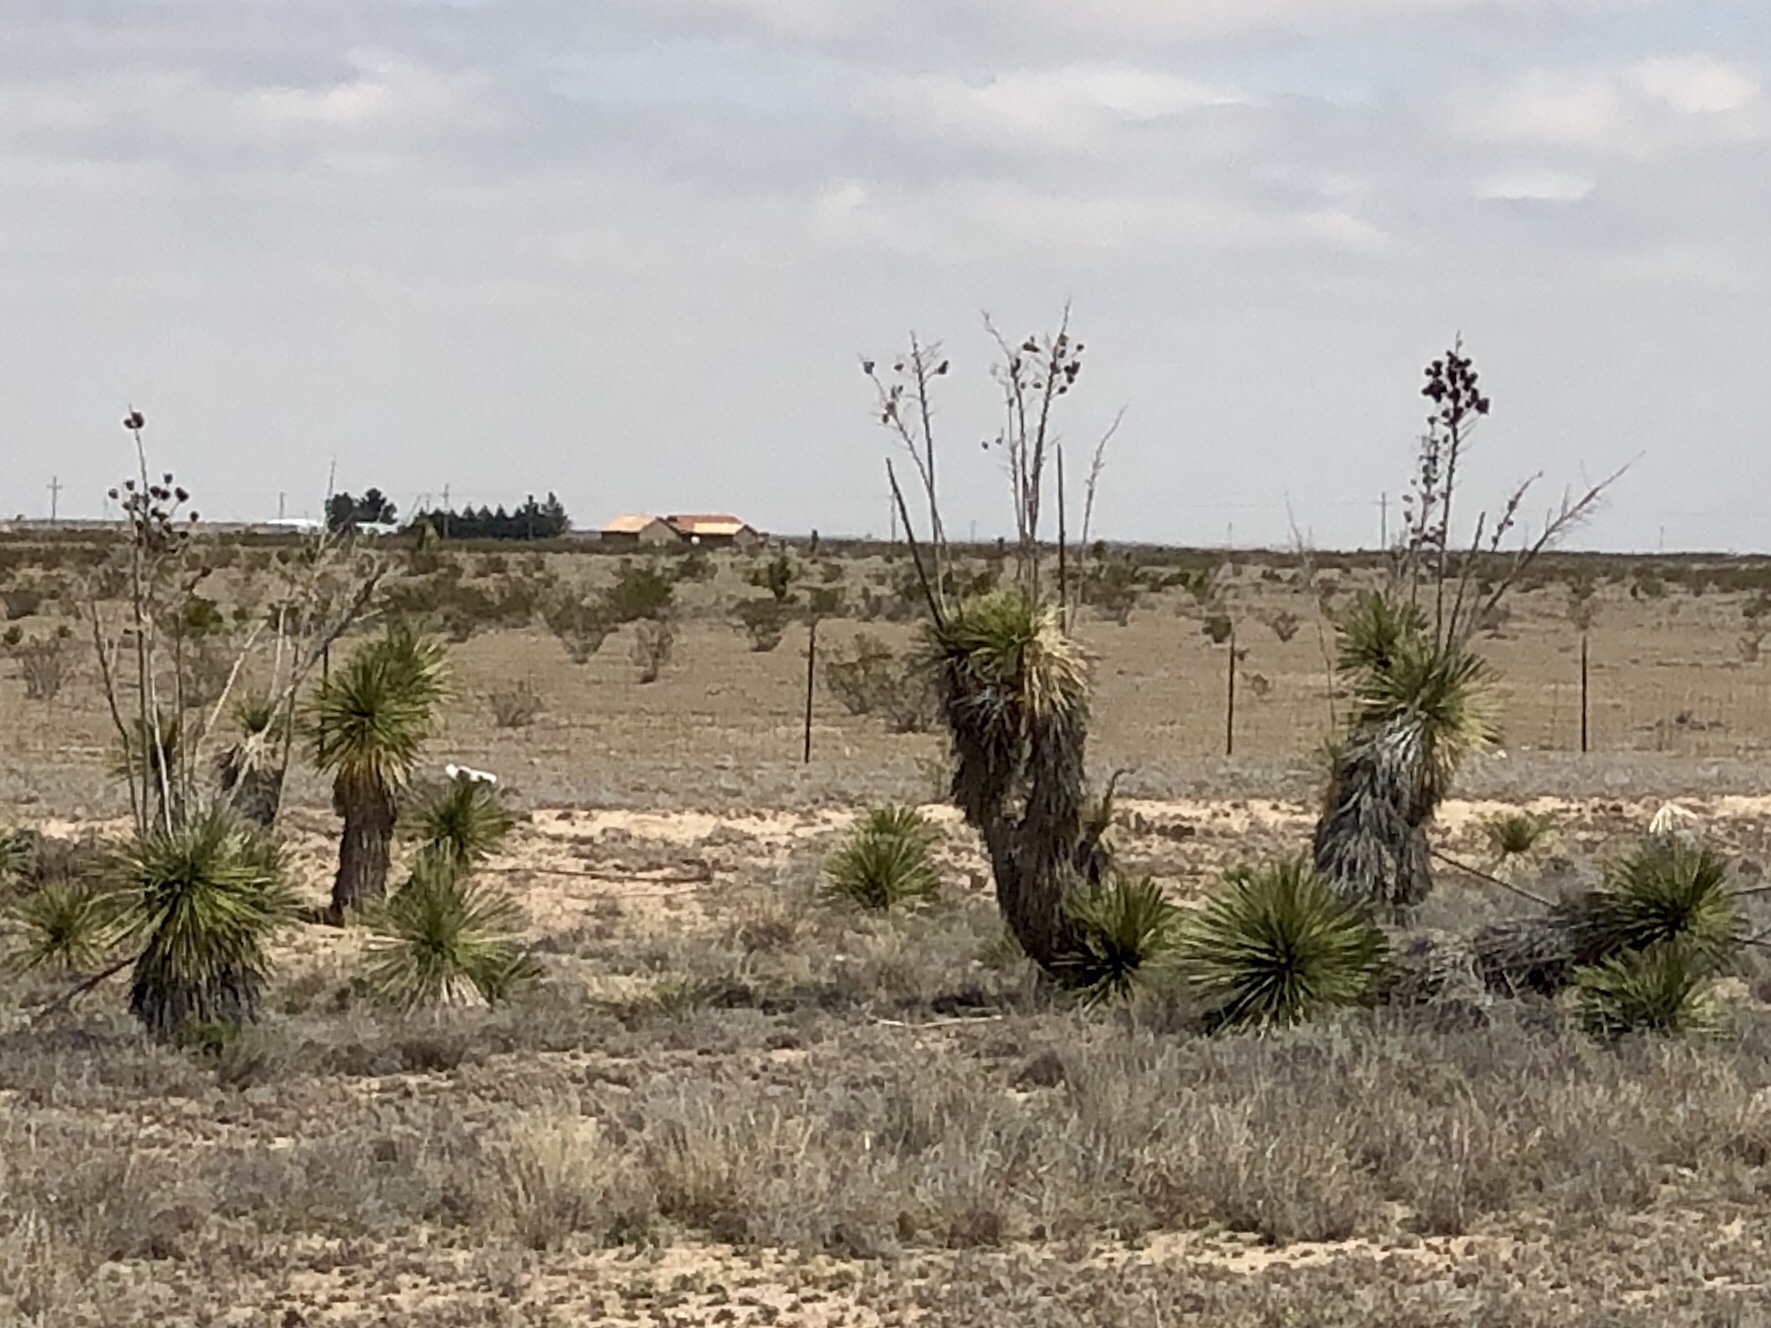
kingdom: Plantae
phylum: Tracheophyta
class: Liliopsida
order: Asparagales
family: Asparagaceae
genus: Yucca
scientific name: Yucca elata
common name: Palmella
